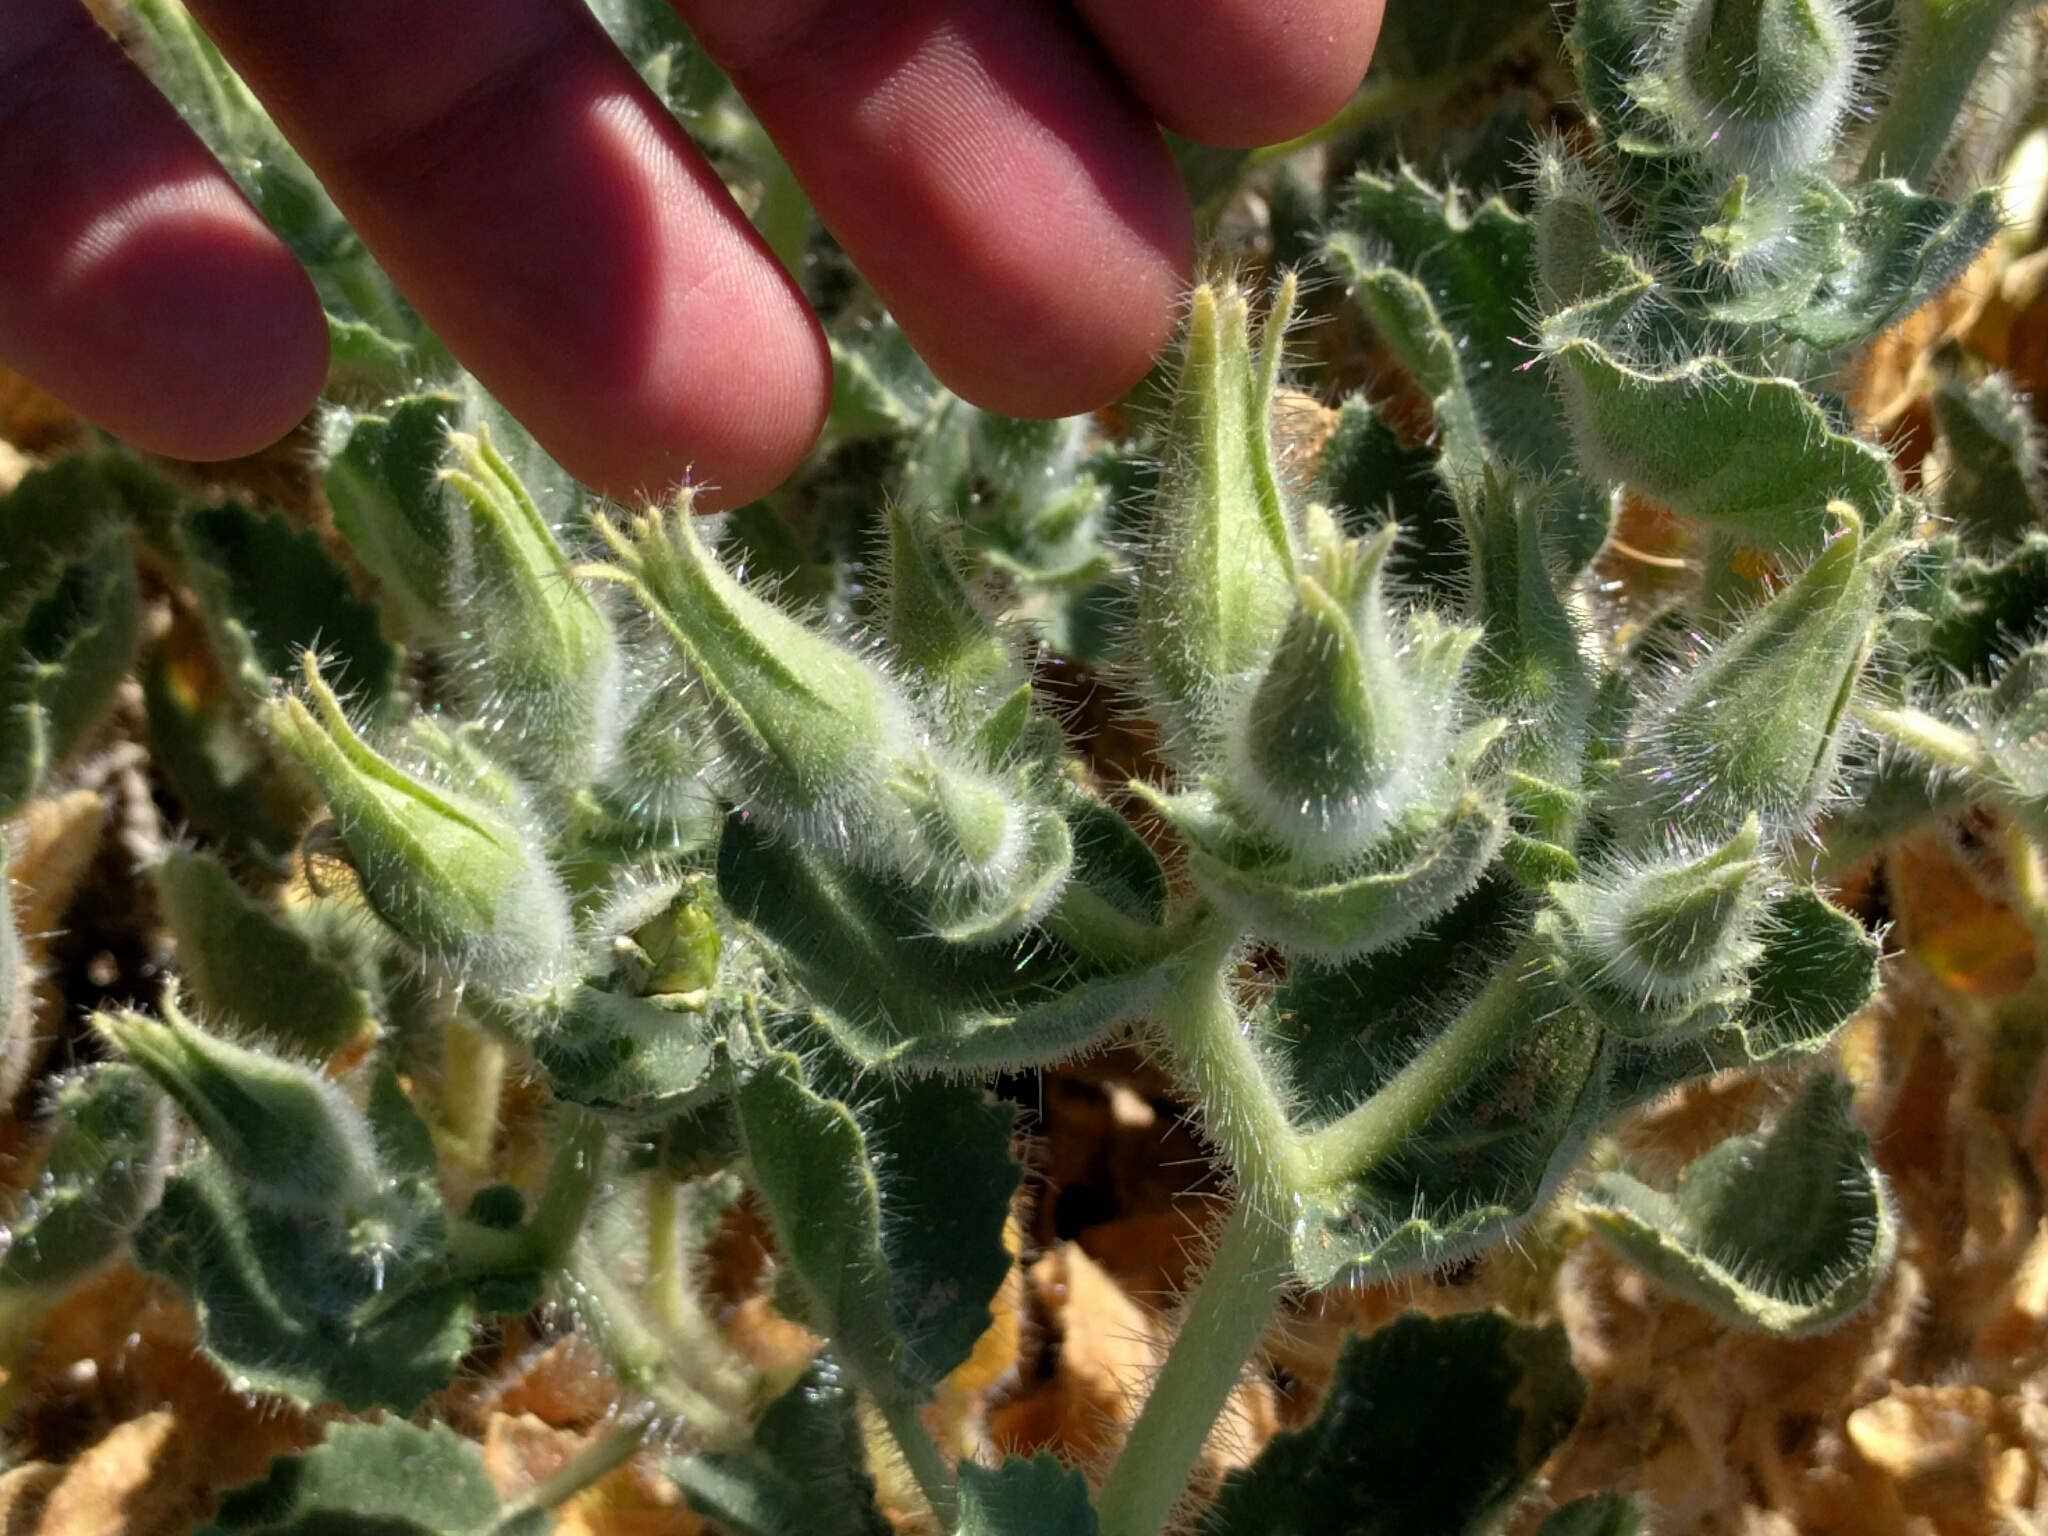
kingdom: Plantae
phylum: Tracheophyta
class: Magnoliopsida
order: Cornales
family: Loasaceae
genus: Eucnide
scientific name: Eucnide urens
